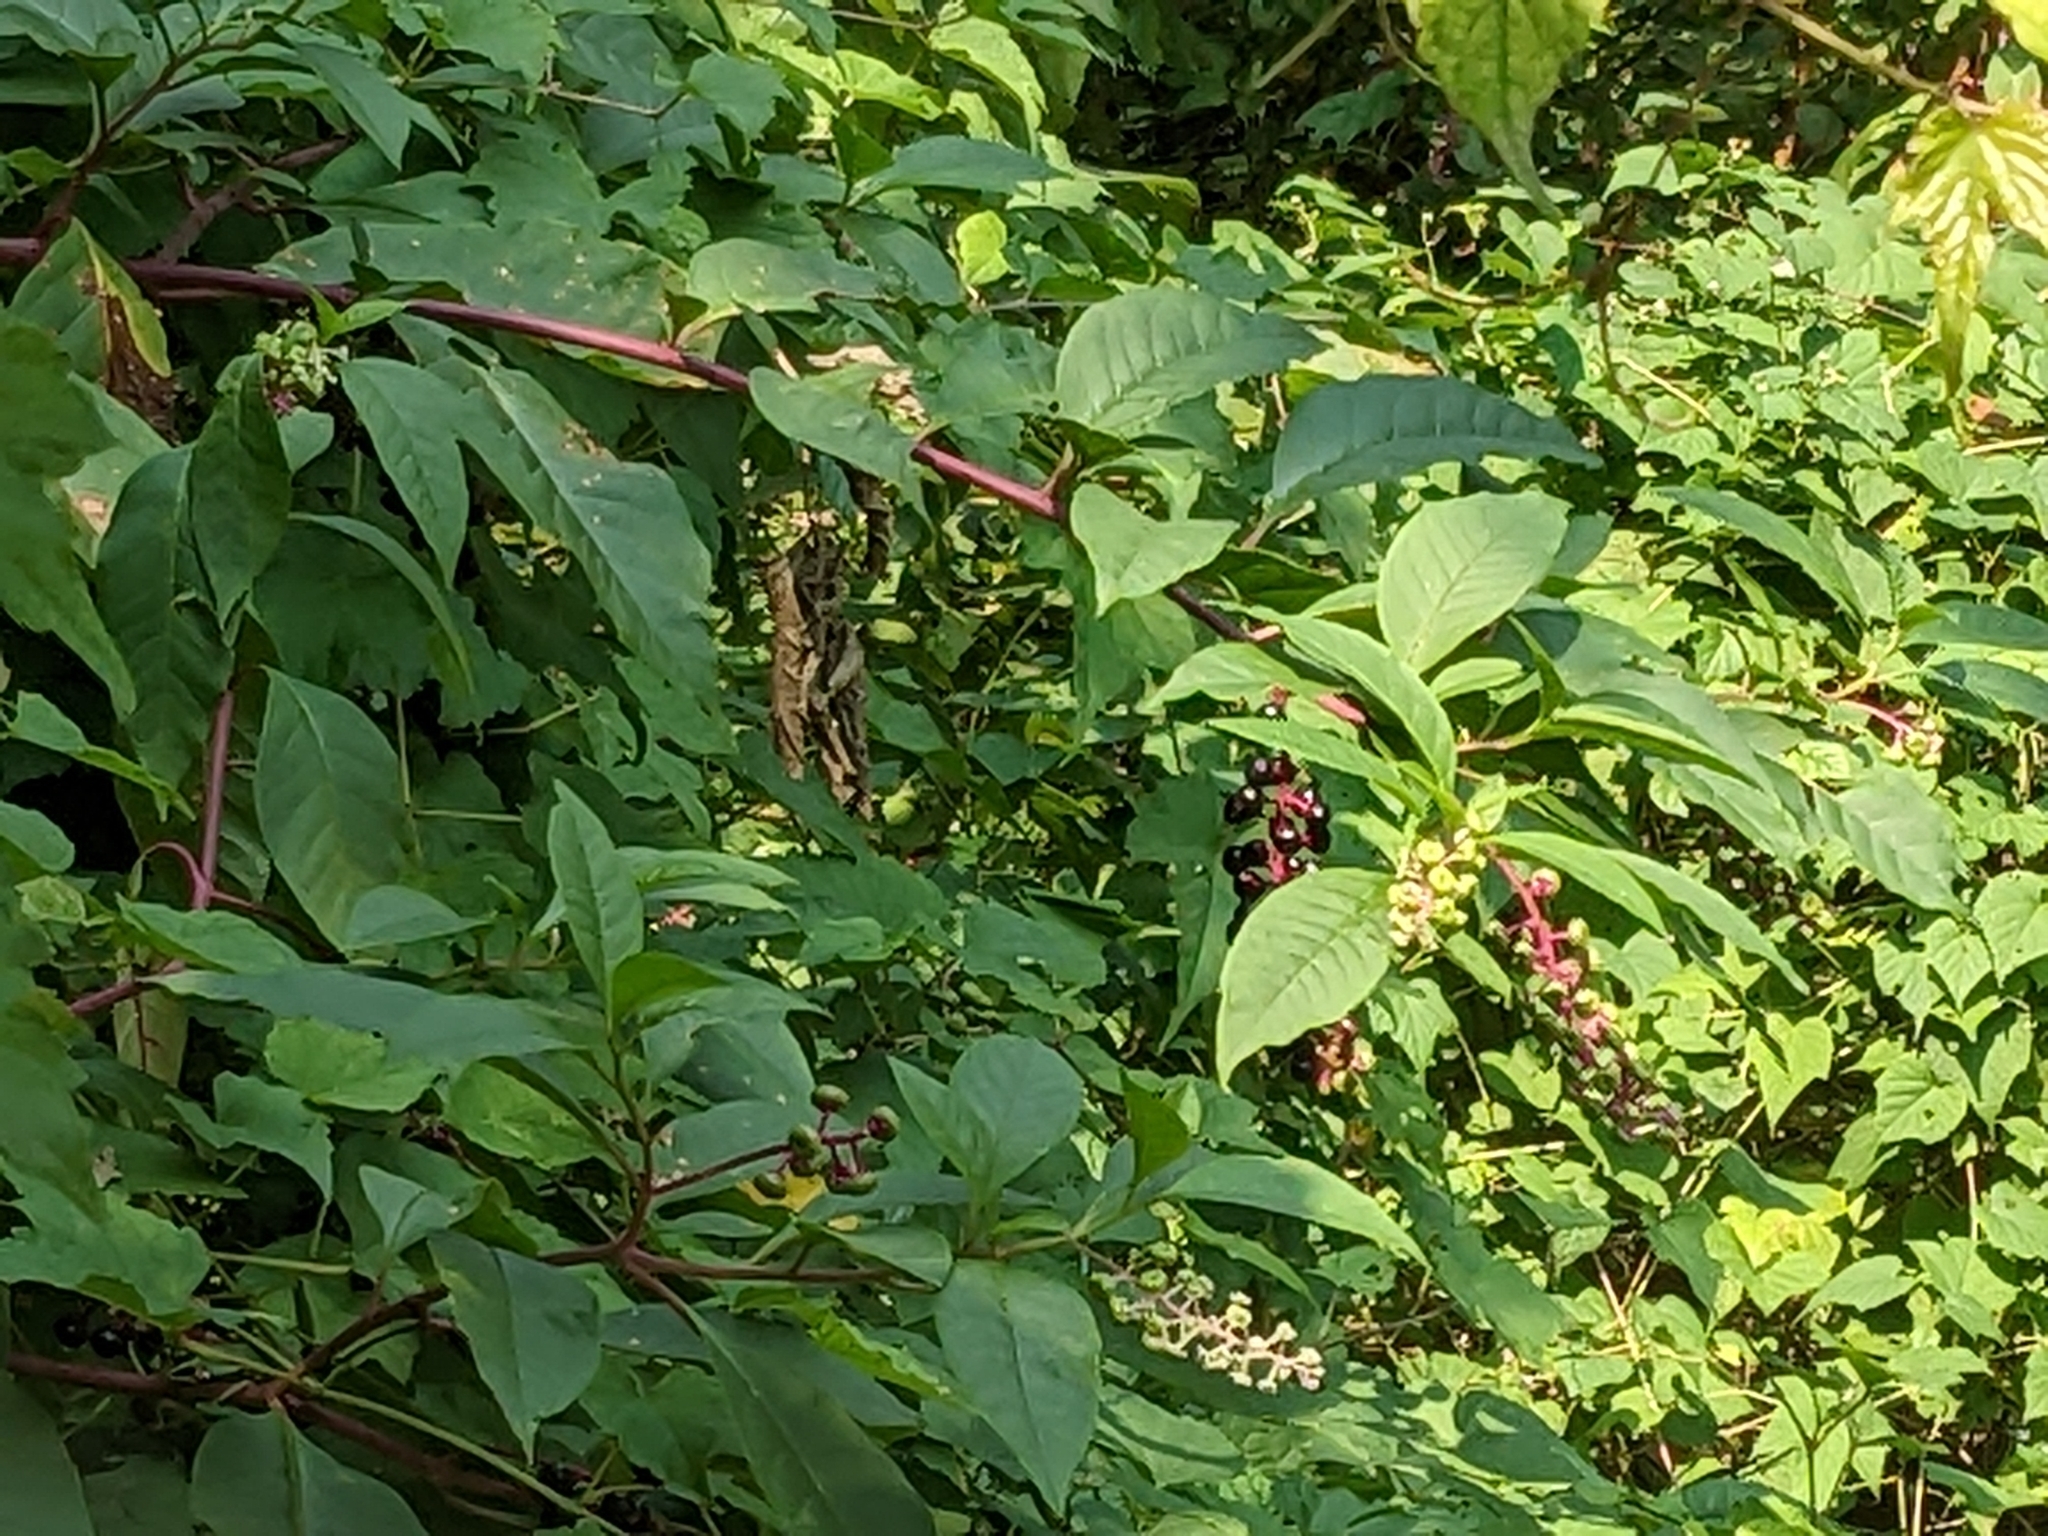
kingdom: Plantae
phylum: Tracheophyta
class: Magnoliopsida
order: Caryophyllales
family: Phytolaccaceae
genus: Phytolacca
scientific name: Phytolacca americana
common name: American pokeweed
